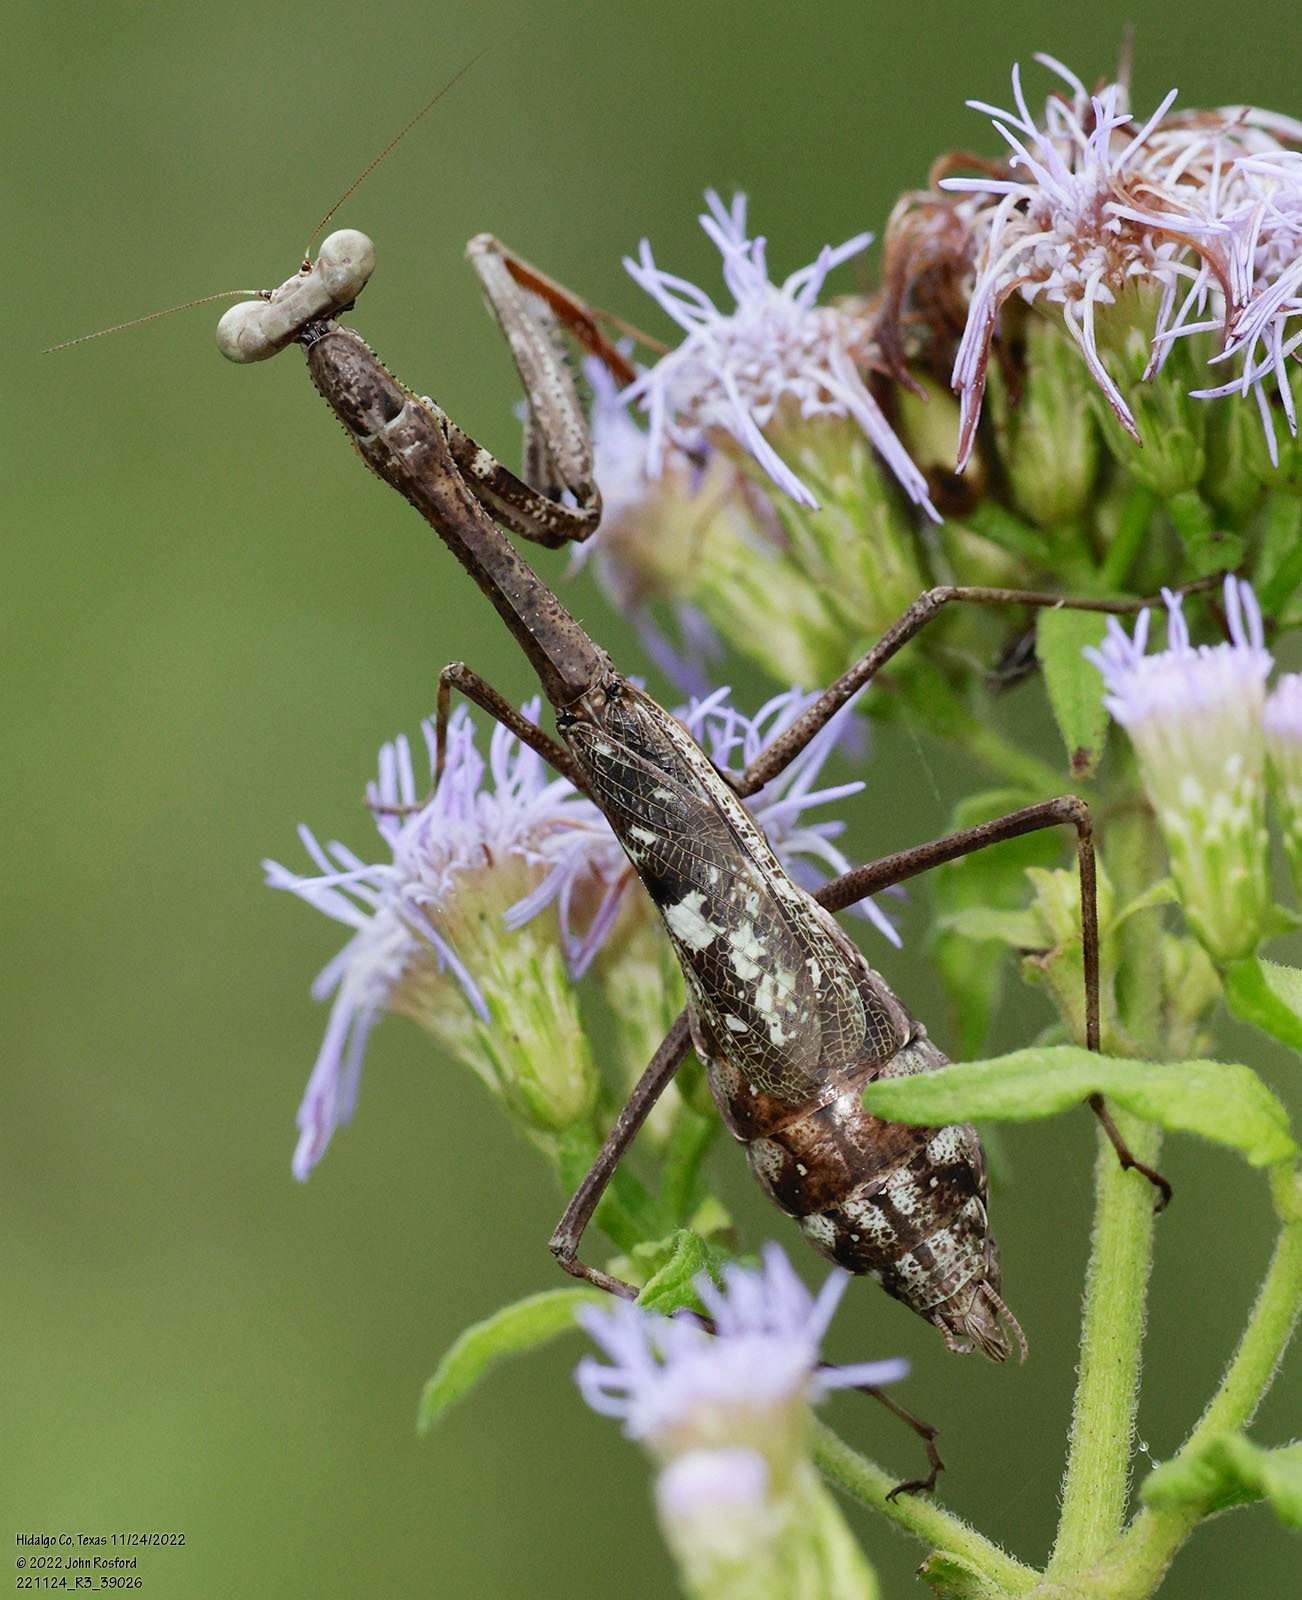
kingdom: Animalia
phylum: Arthropoda
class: Insecta
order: Mantodea
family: Mantidae
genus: Stagmomantis
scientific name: Stagmomantis resacae
